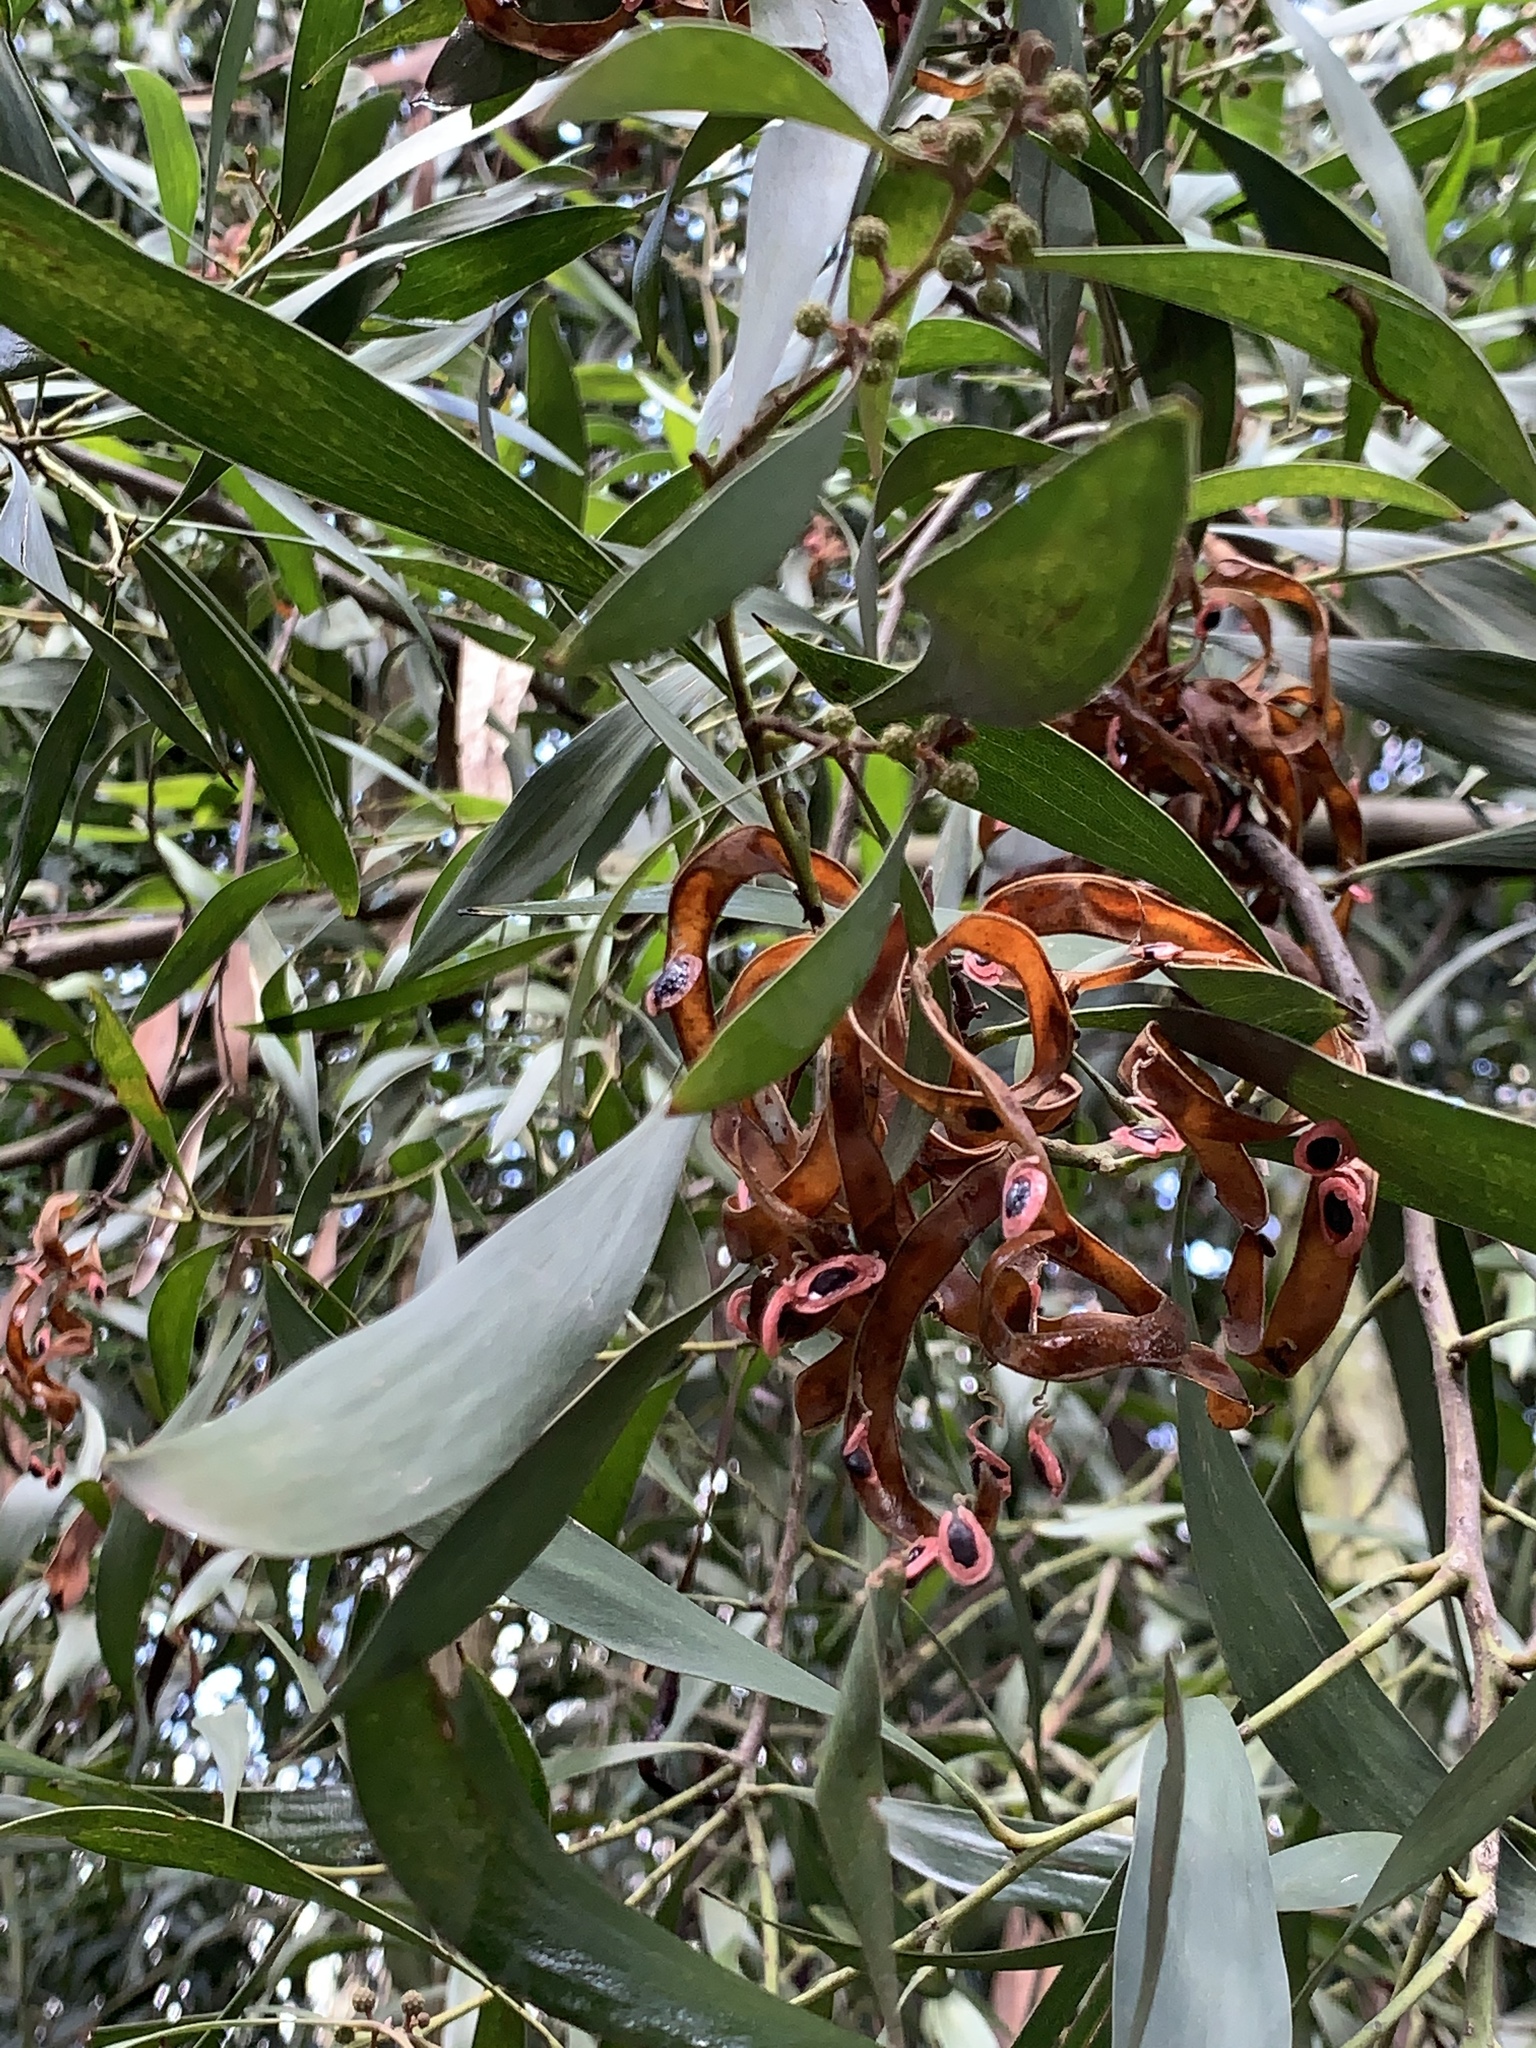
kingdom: Plantae
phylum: Tracheophyta
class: Magnoliopsida
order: Fabales
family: Fabaceae
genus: Acacia
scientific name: Acacia melanoxylon
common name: Blackwood
